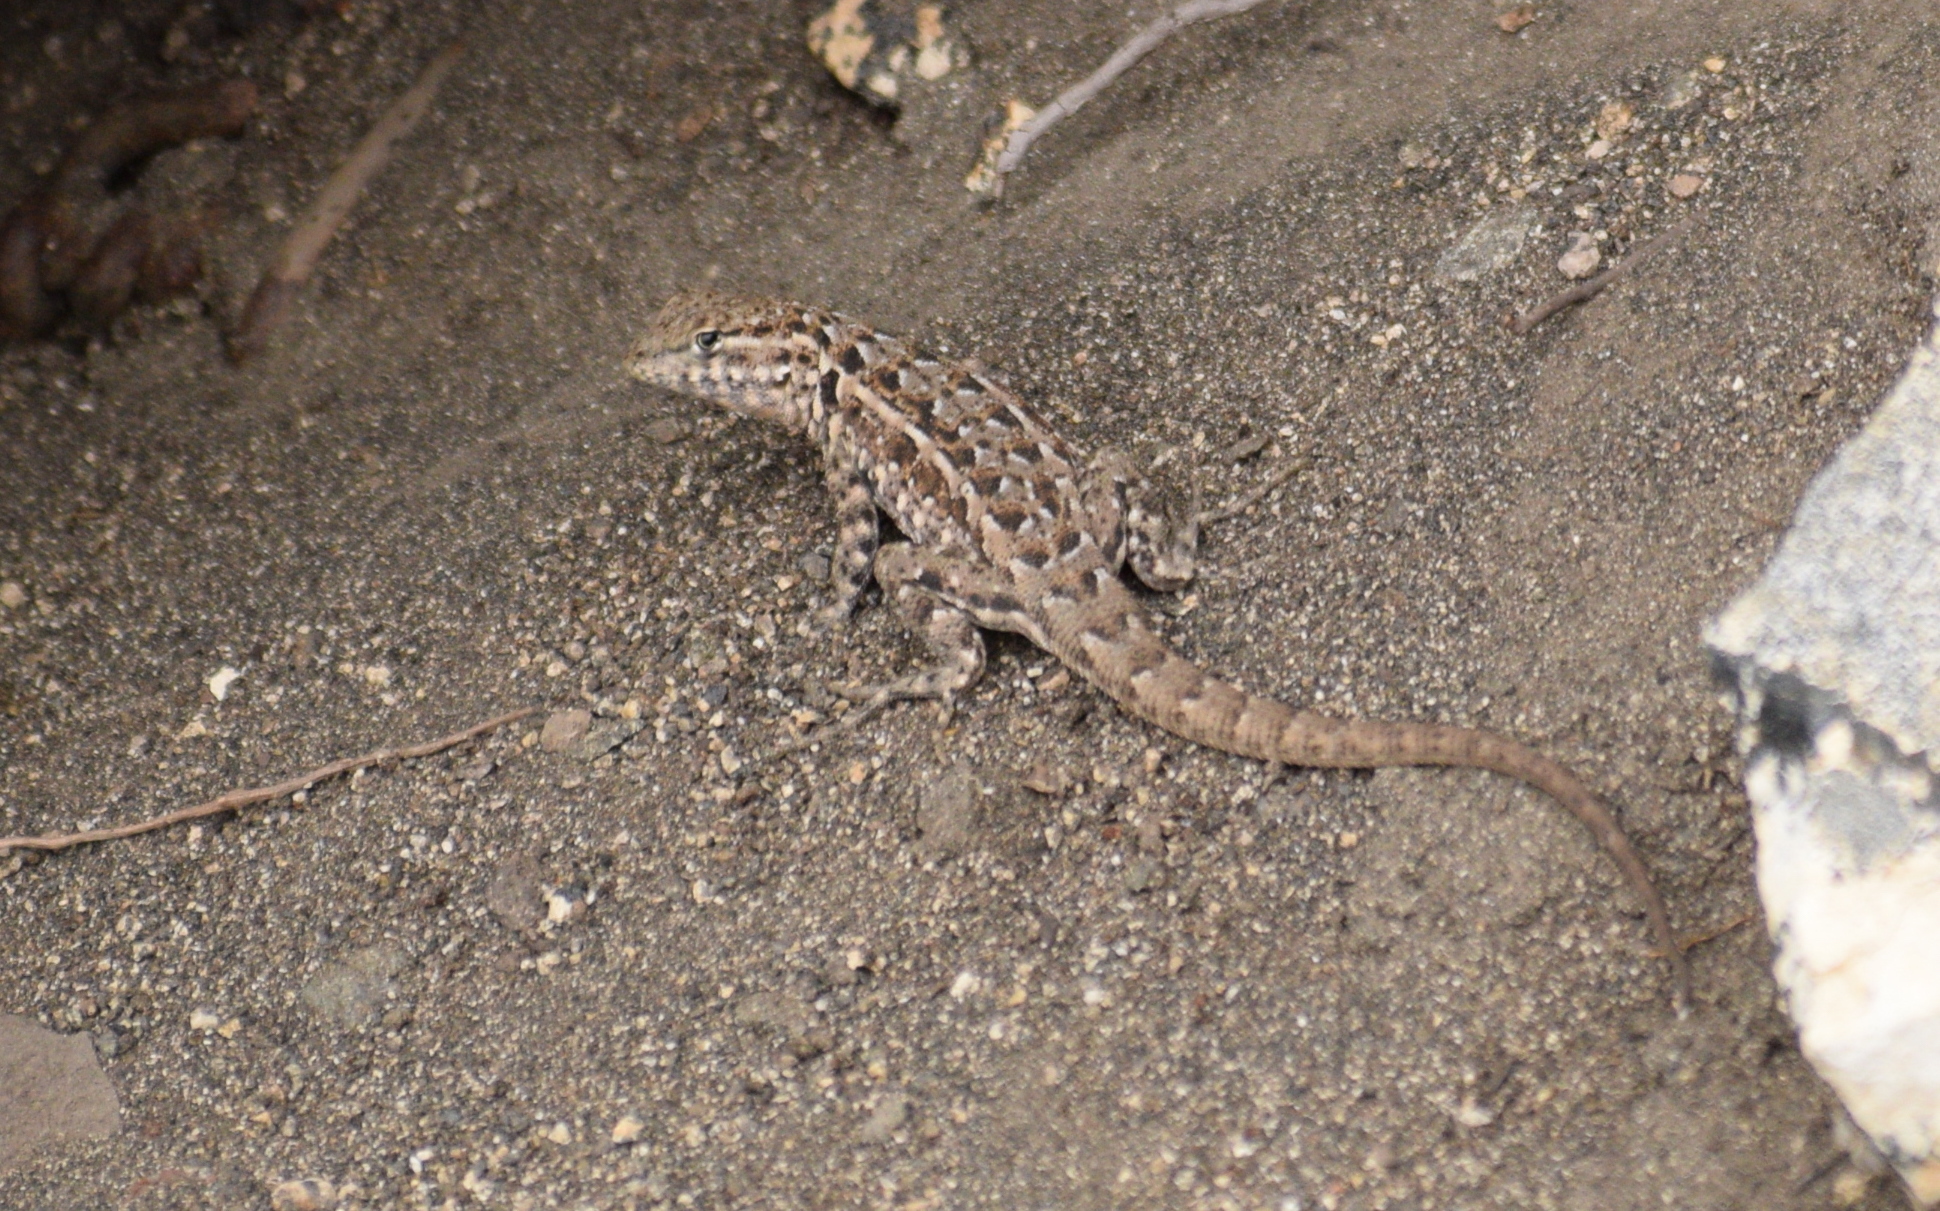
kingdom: Animalia
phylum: Chordata
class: Squamata
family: Phrynosomatidae
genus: Uta
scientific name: Uta stansburiana
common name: Side-blotched lizard
